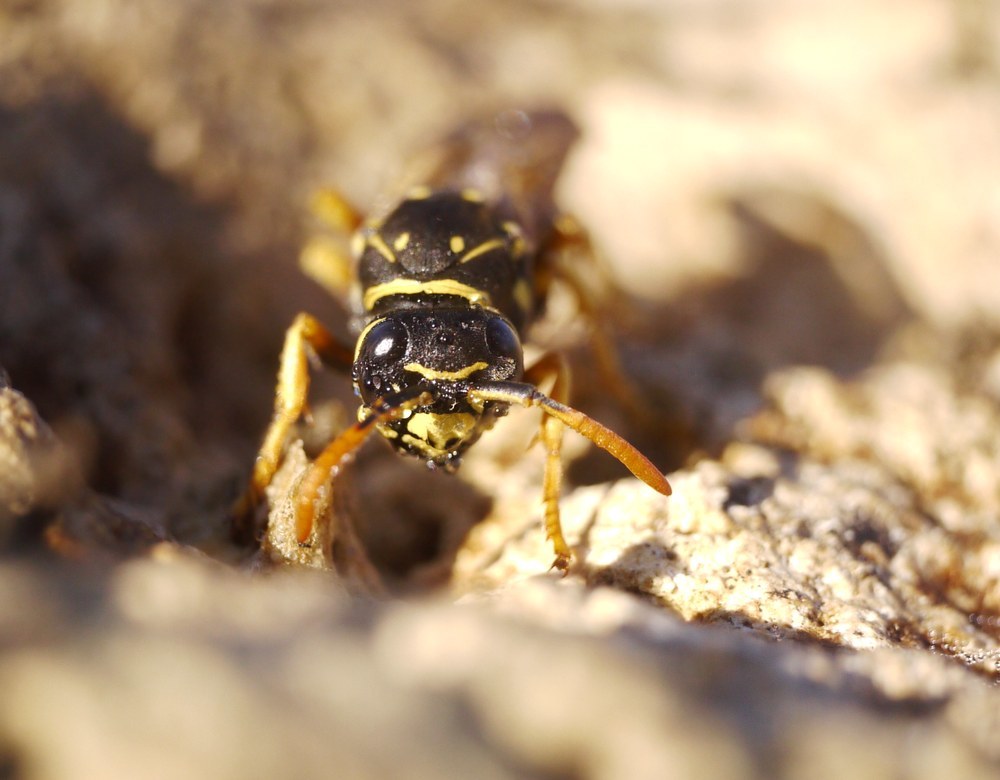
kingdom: Animalia
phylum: Arthropoda
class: Insecta
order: Hymenoptera
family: Eumenidae
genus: Polistes
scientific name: Polistes dominula
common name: Paper wasp
